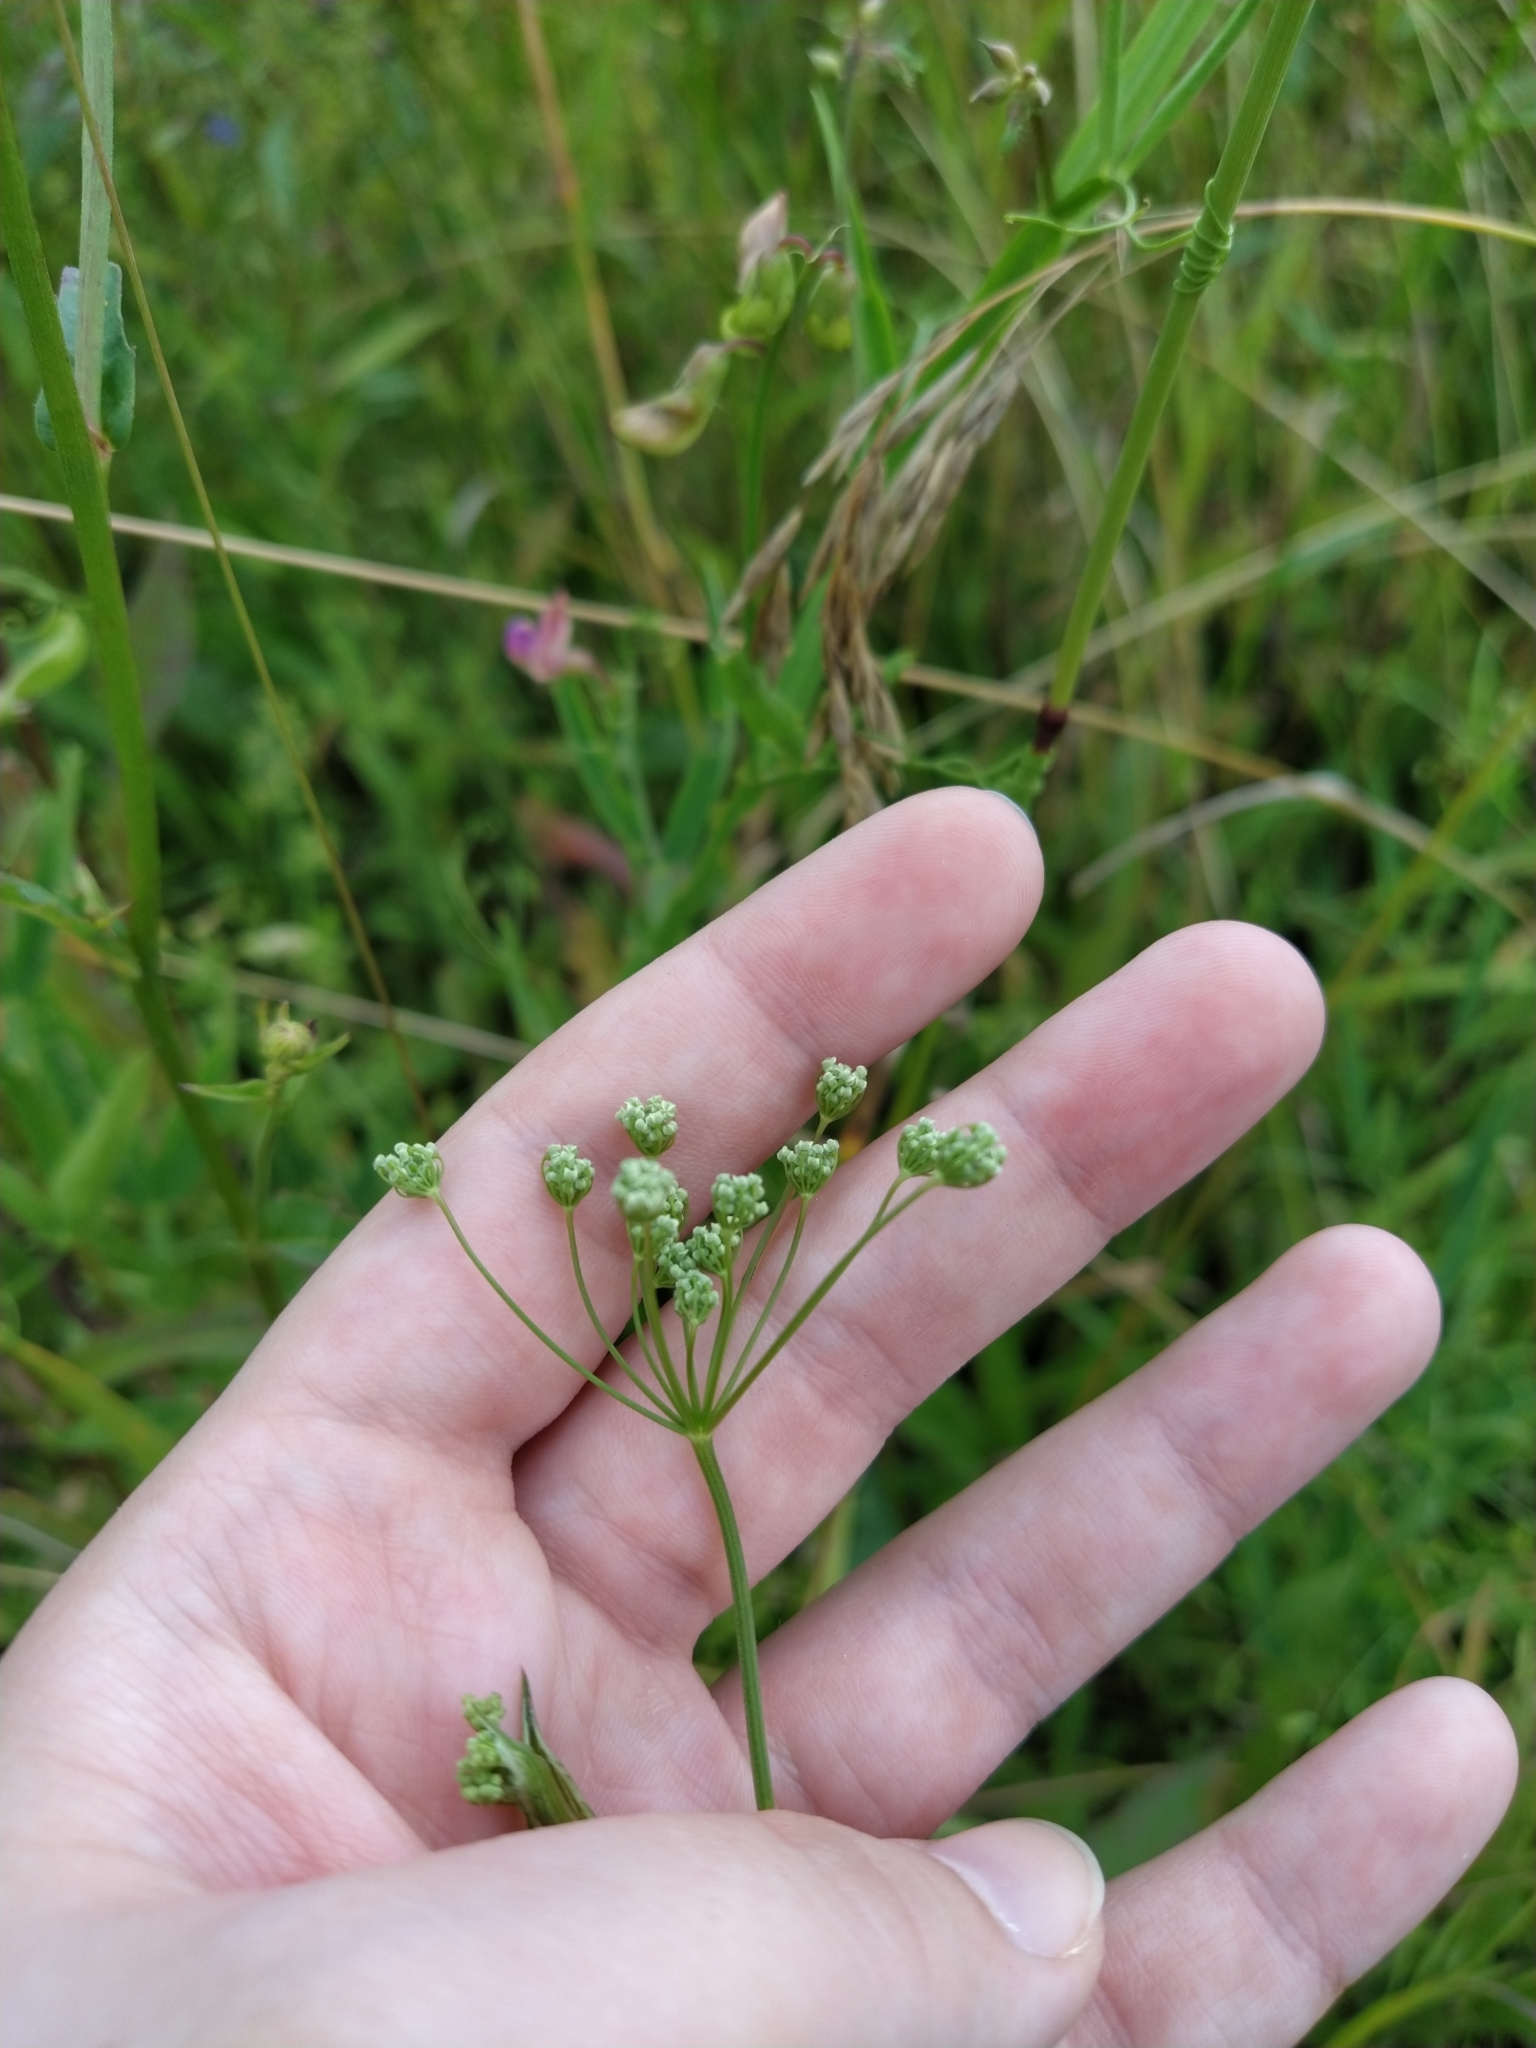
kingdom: Plantae
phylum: Tracheophyta
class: Magnoliopsida
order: Apiales
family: Apiaceae
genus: Pimpinella
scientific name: Pimpinella saxifraga
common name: Burnet-saxifrage
